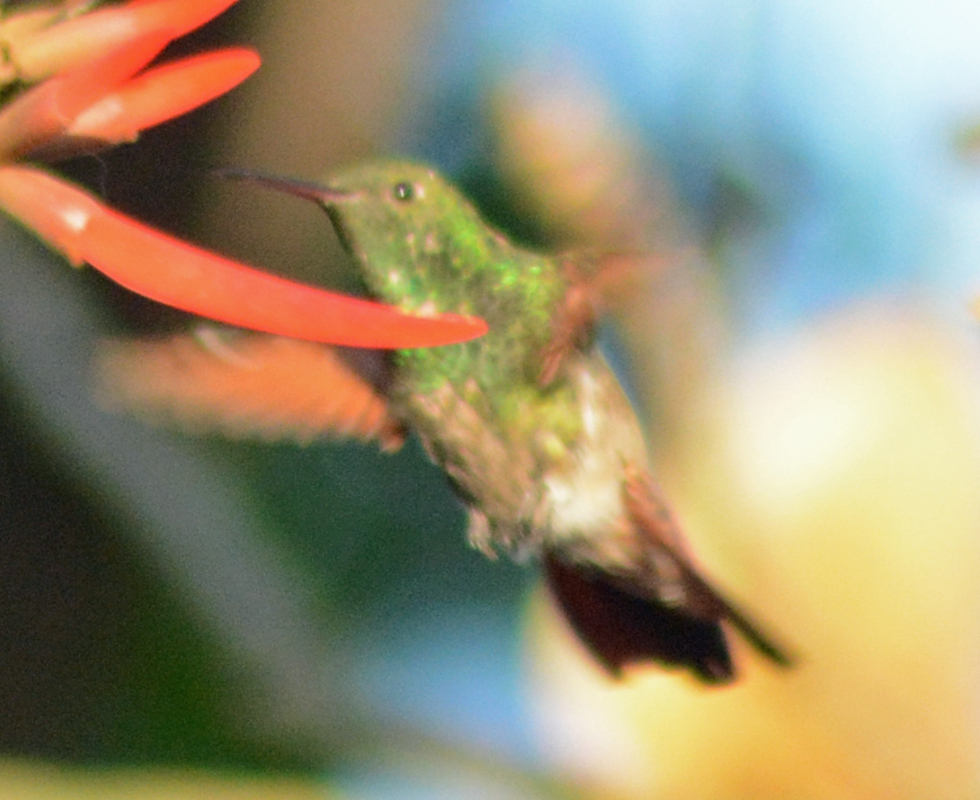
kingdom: Animalia
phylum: Chordata
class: Aves
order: Apodiformes
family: Trochilidae
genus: Saucerottia
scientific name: Saucerottia beryllina
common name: Berylline hummingbird
